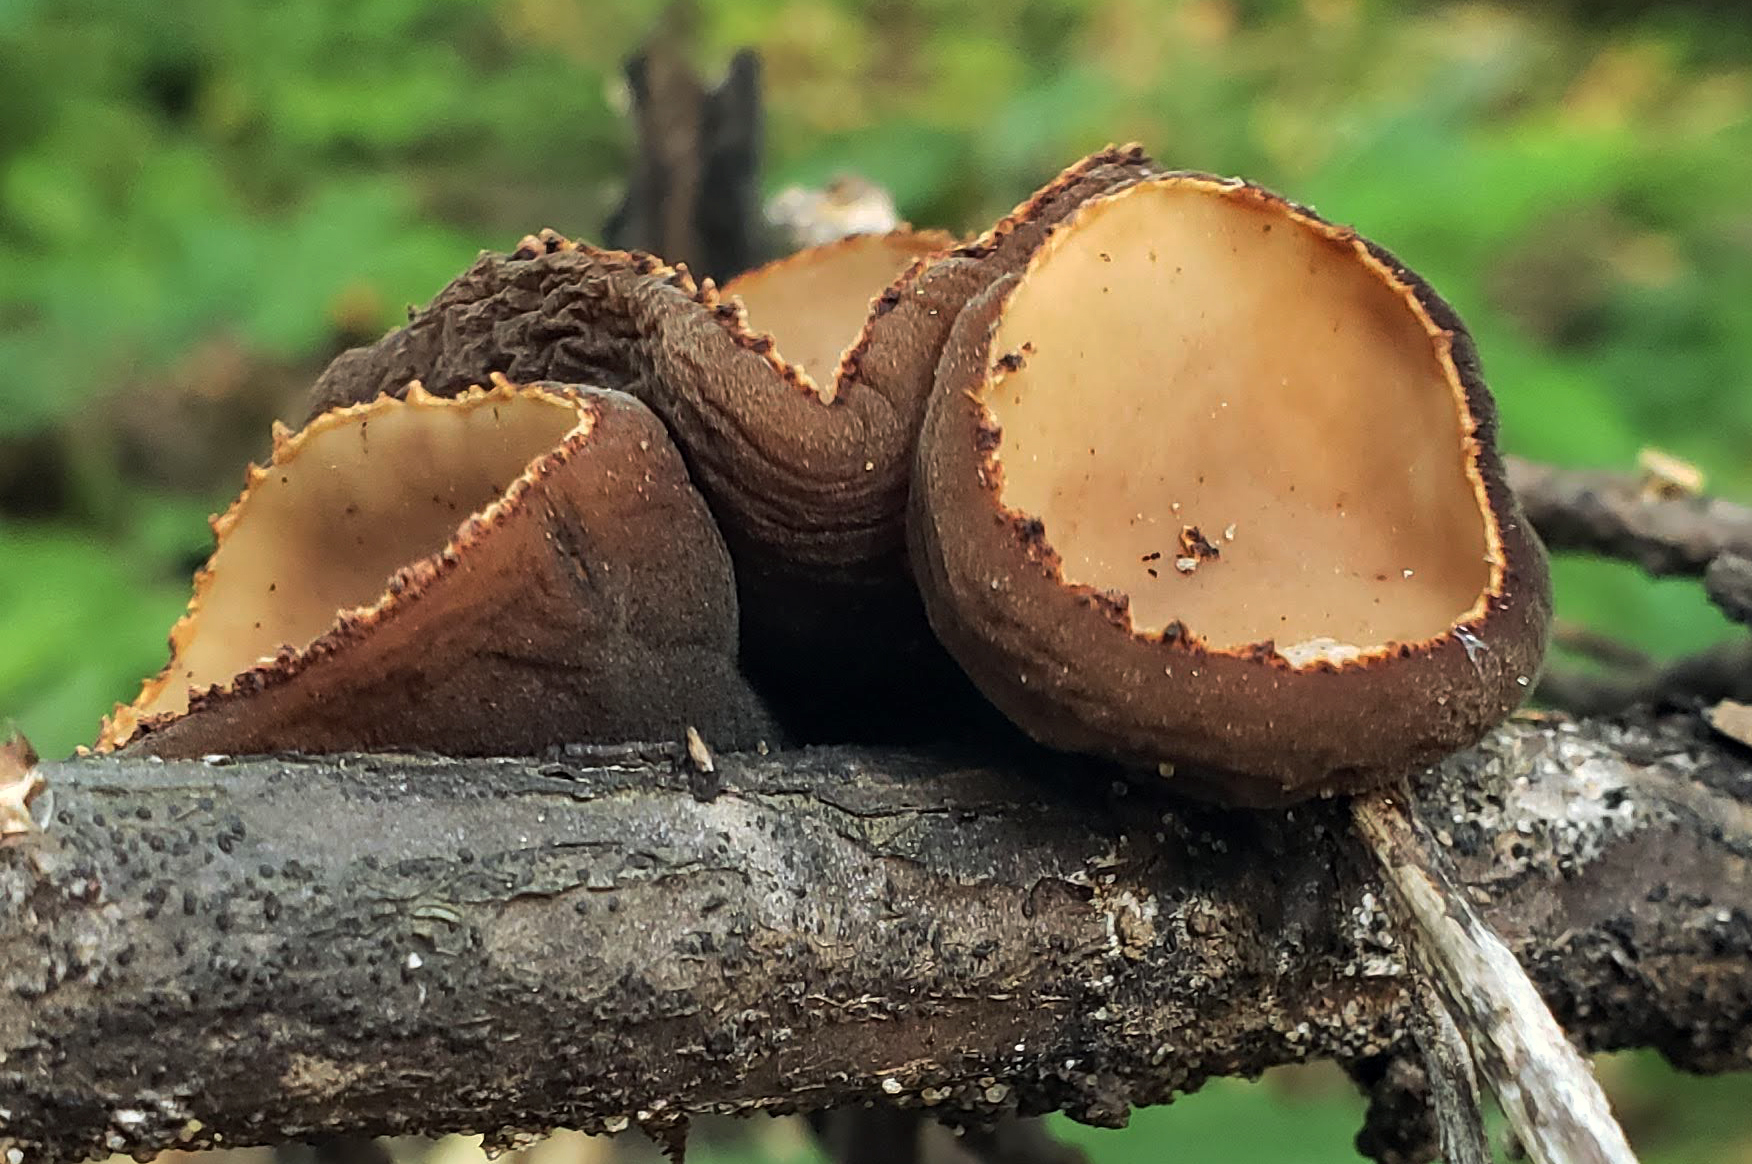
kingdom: Fungi
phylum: Ascomycota
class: Pezizomycetes
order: Pezizales
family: Sarcosomataceae
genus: Galiella
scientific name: Galiella rufa
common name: Hairy rubber cup
